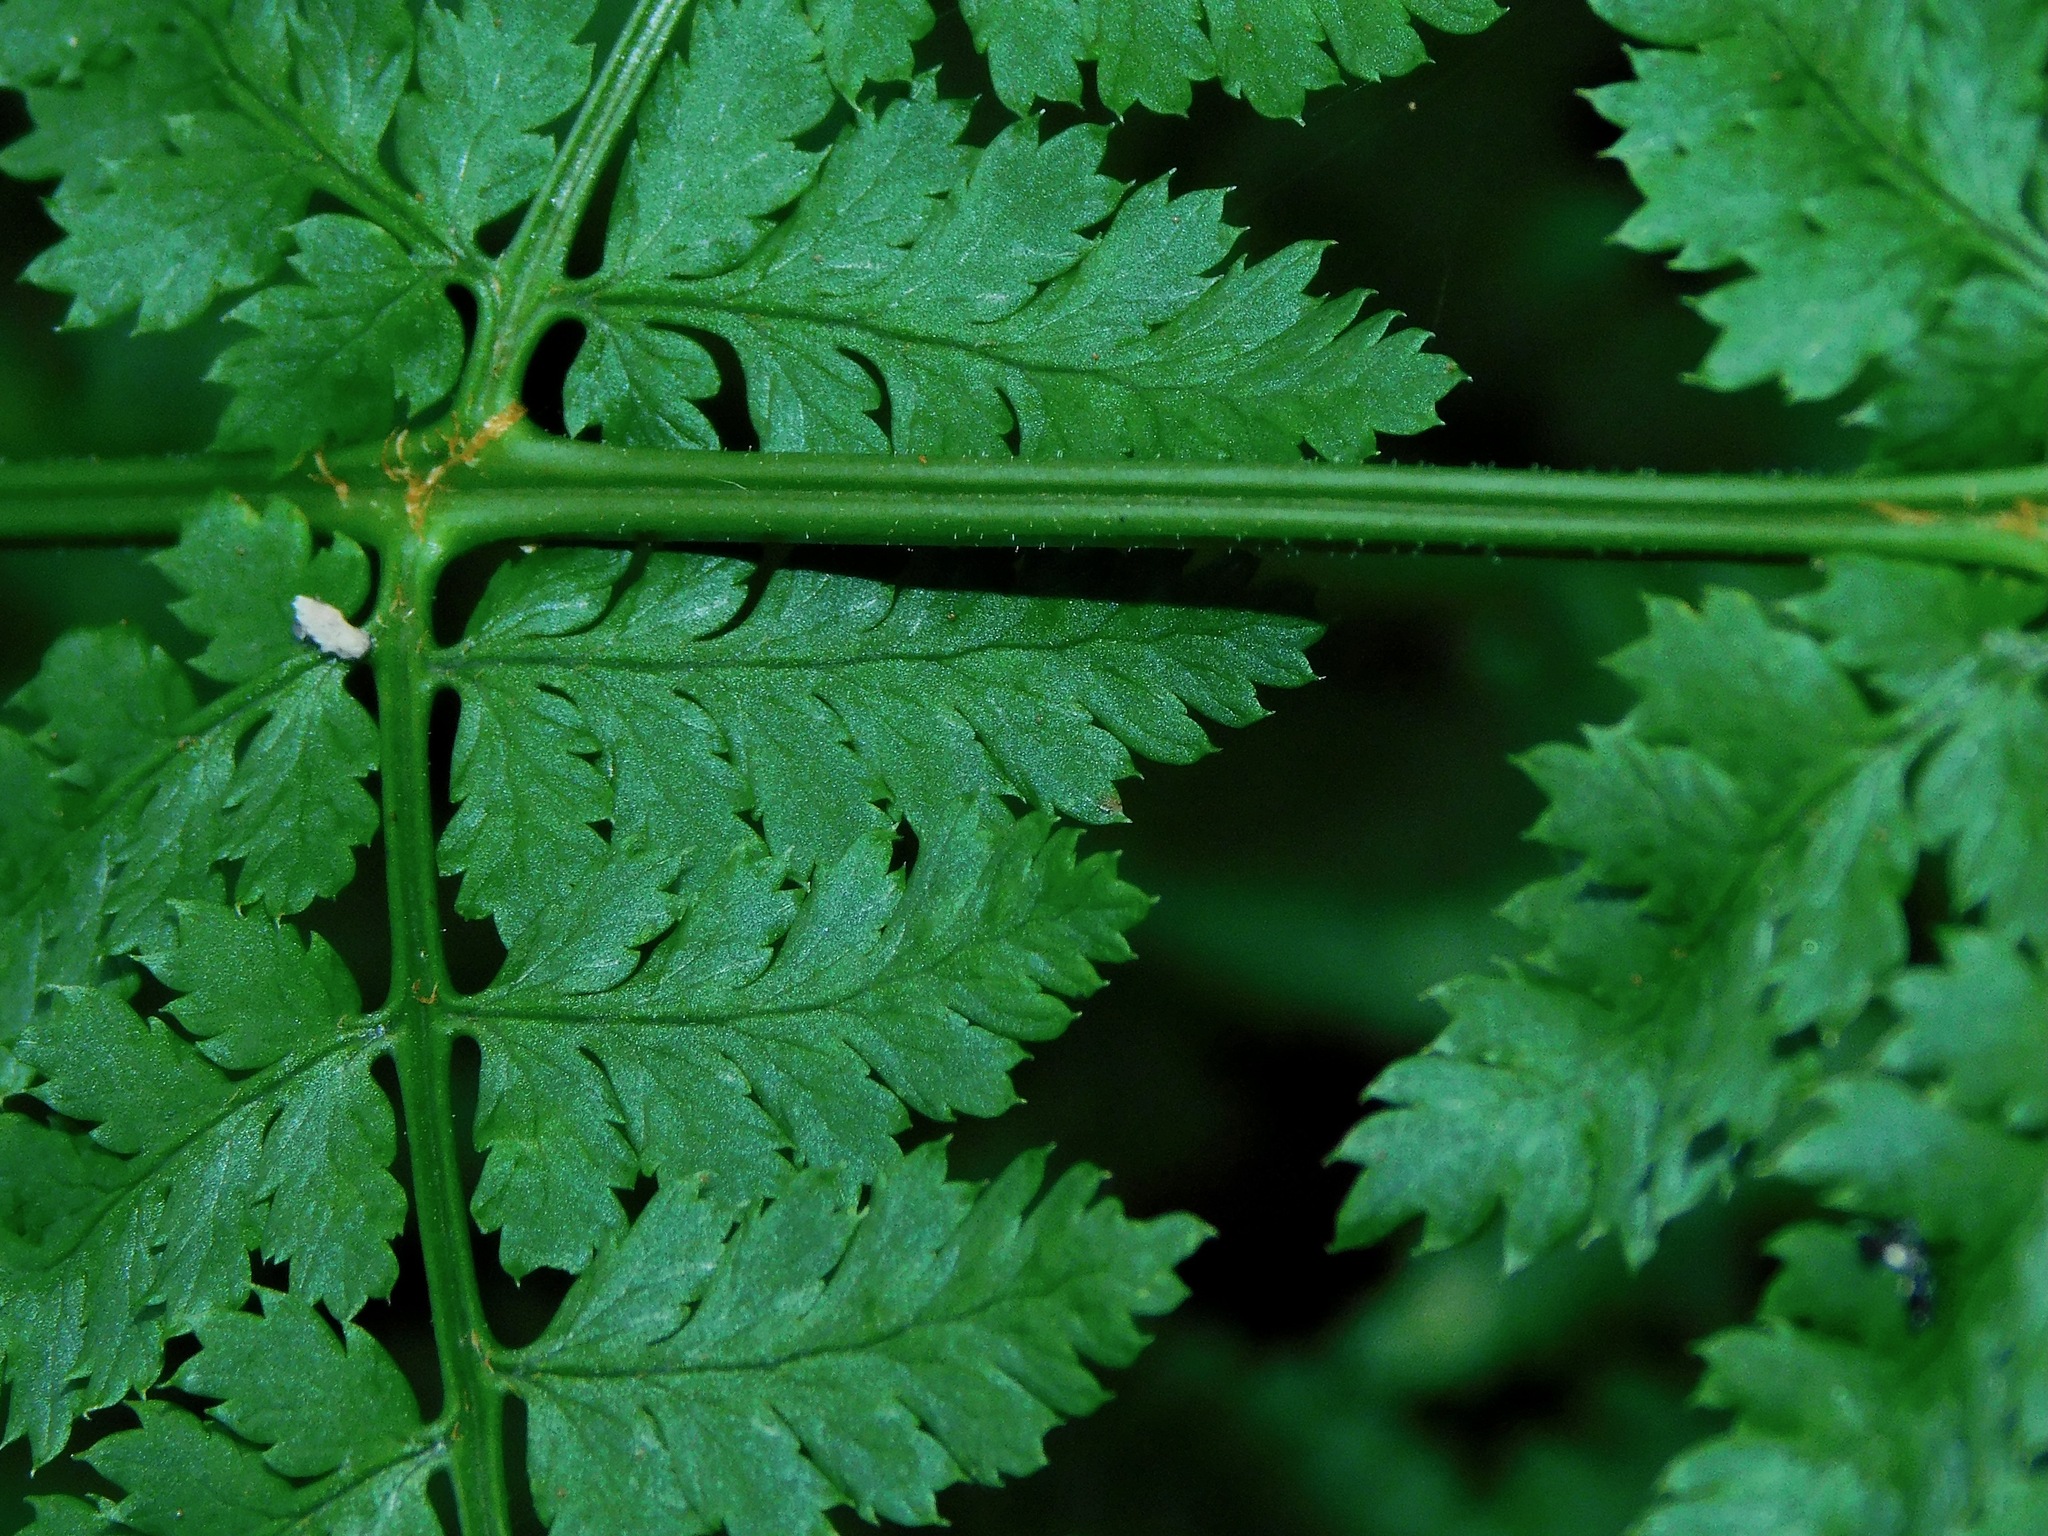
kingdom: Plantae
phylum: Tracheophyta
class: Polypodiopsida
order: Polypodiales
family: Dryopteridaceae
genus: Dryopteris
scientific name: Dryopteris intermedia
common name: Evergreen wood fern
